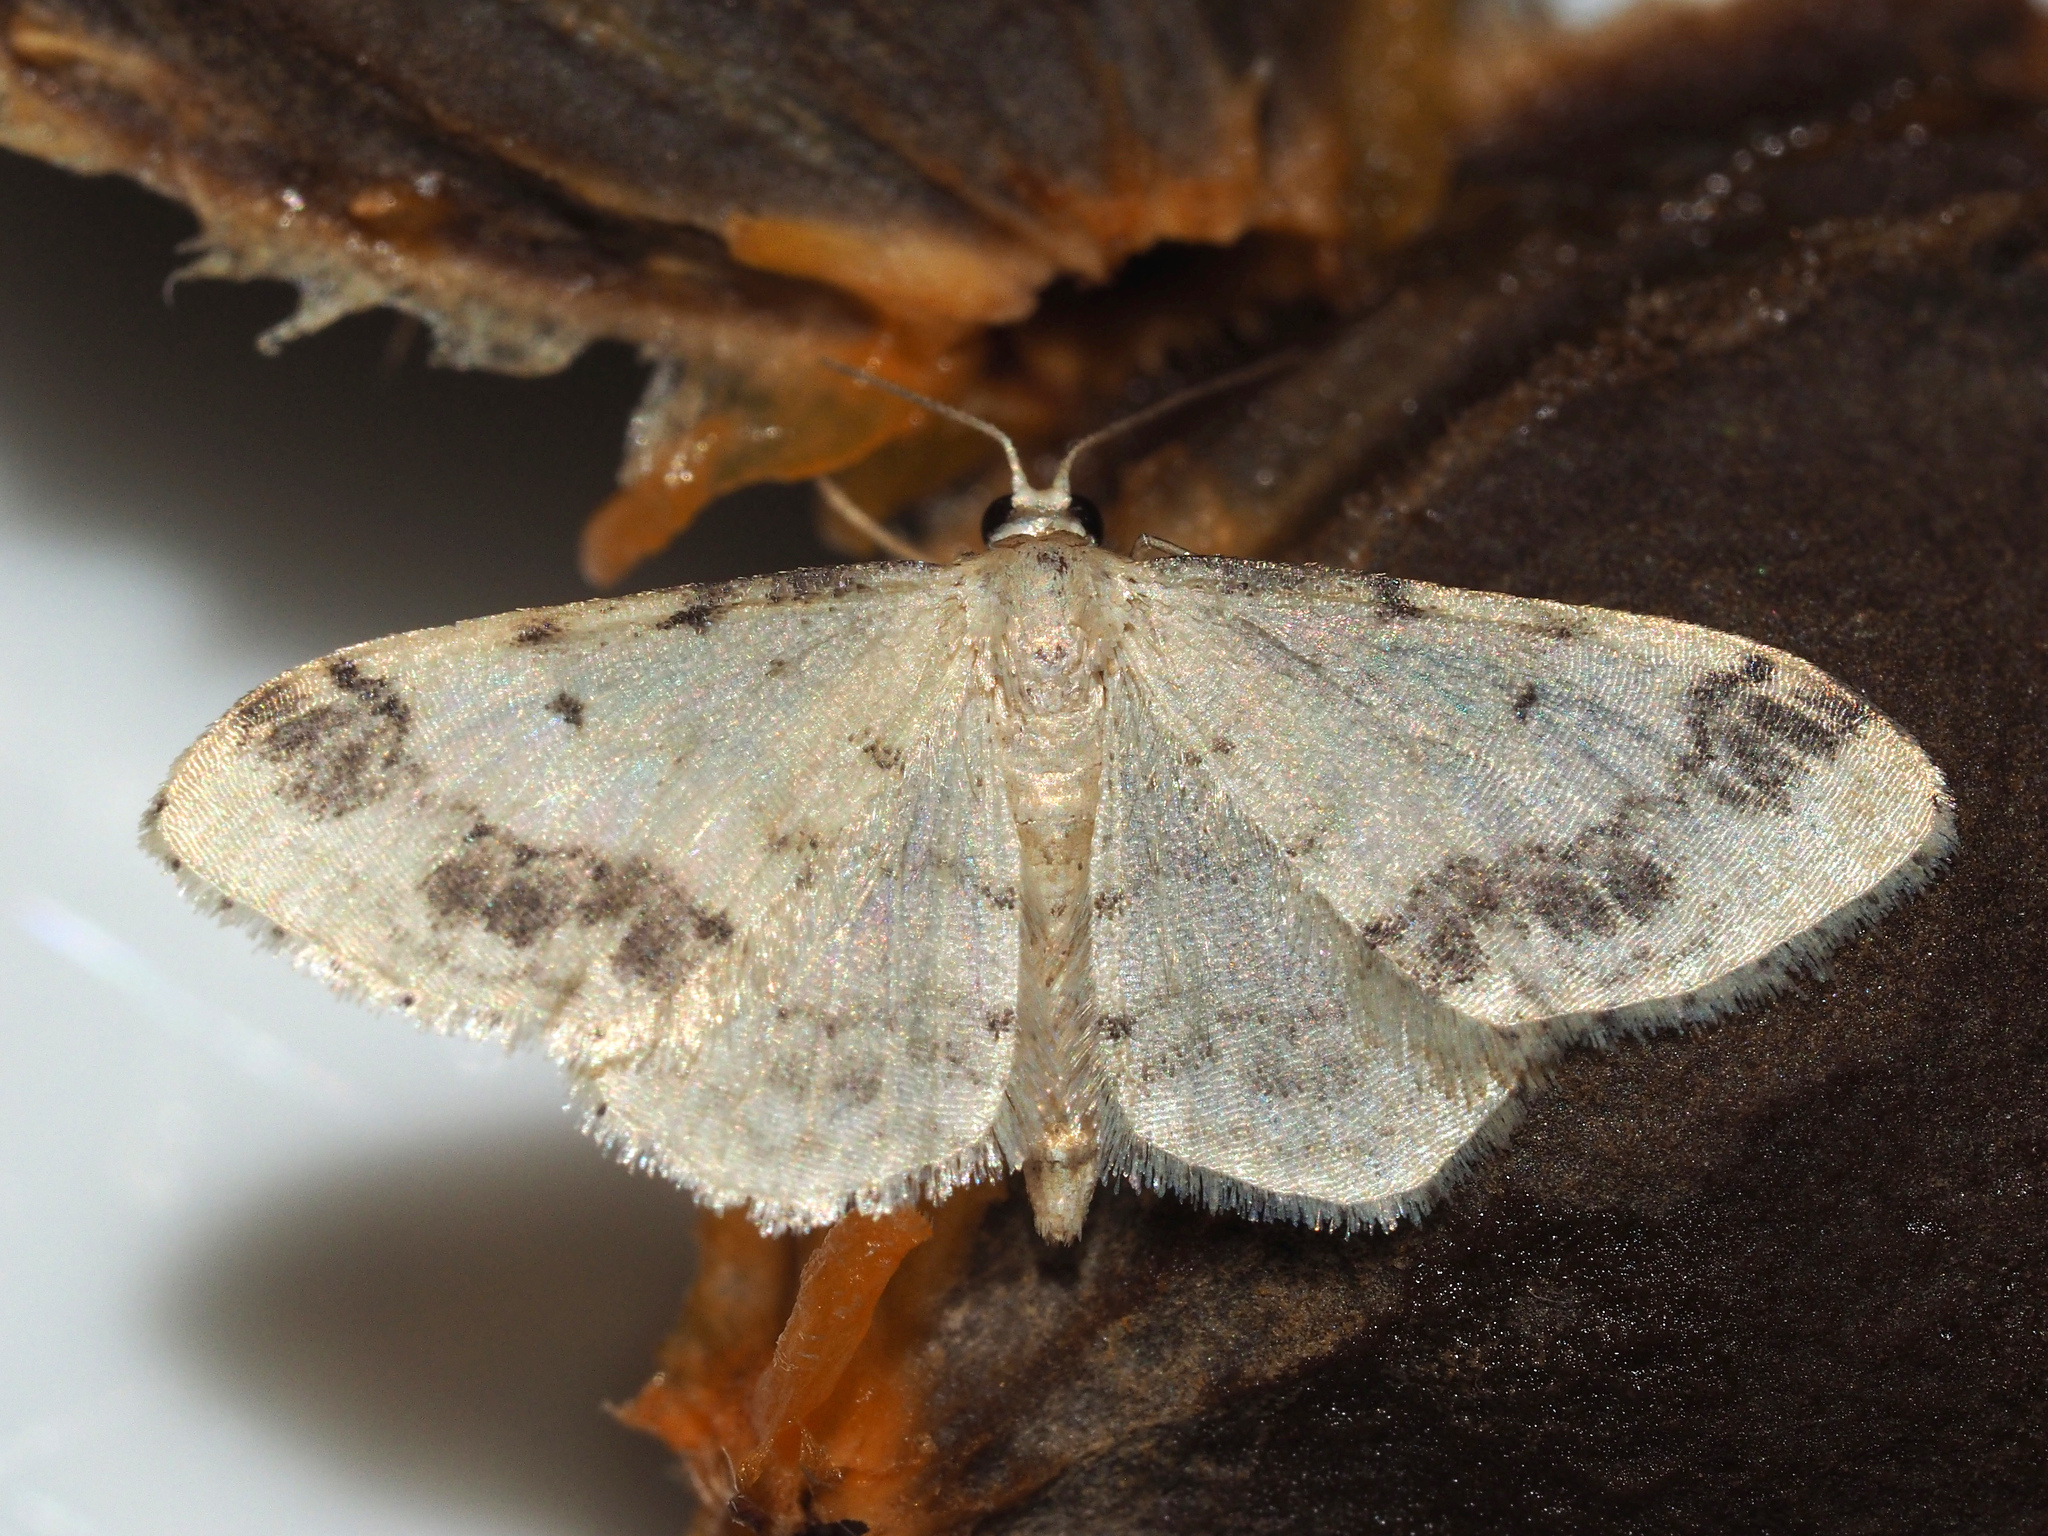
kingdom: Animalia
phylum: Arthropoda
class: Insecta
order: Lepidoptera
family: Geometridae
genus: Idaea
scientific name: Idaea trigeminata
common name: Treble brown spot
